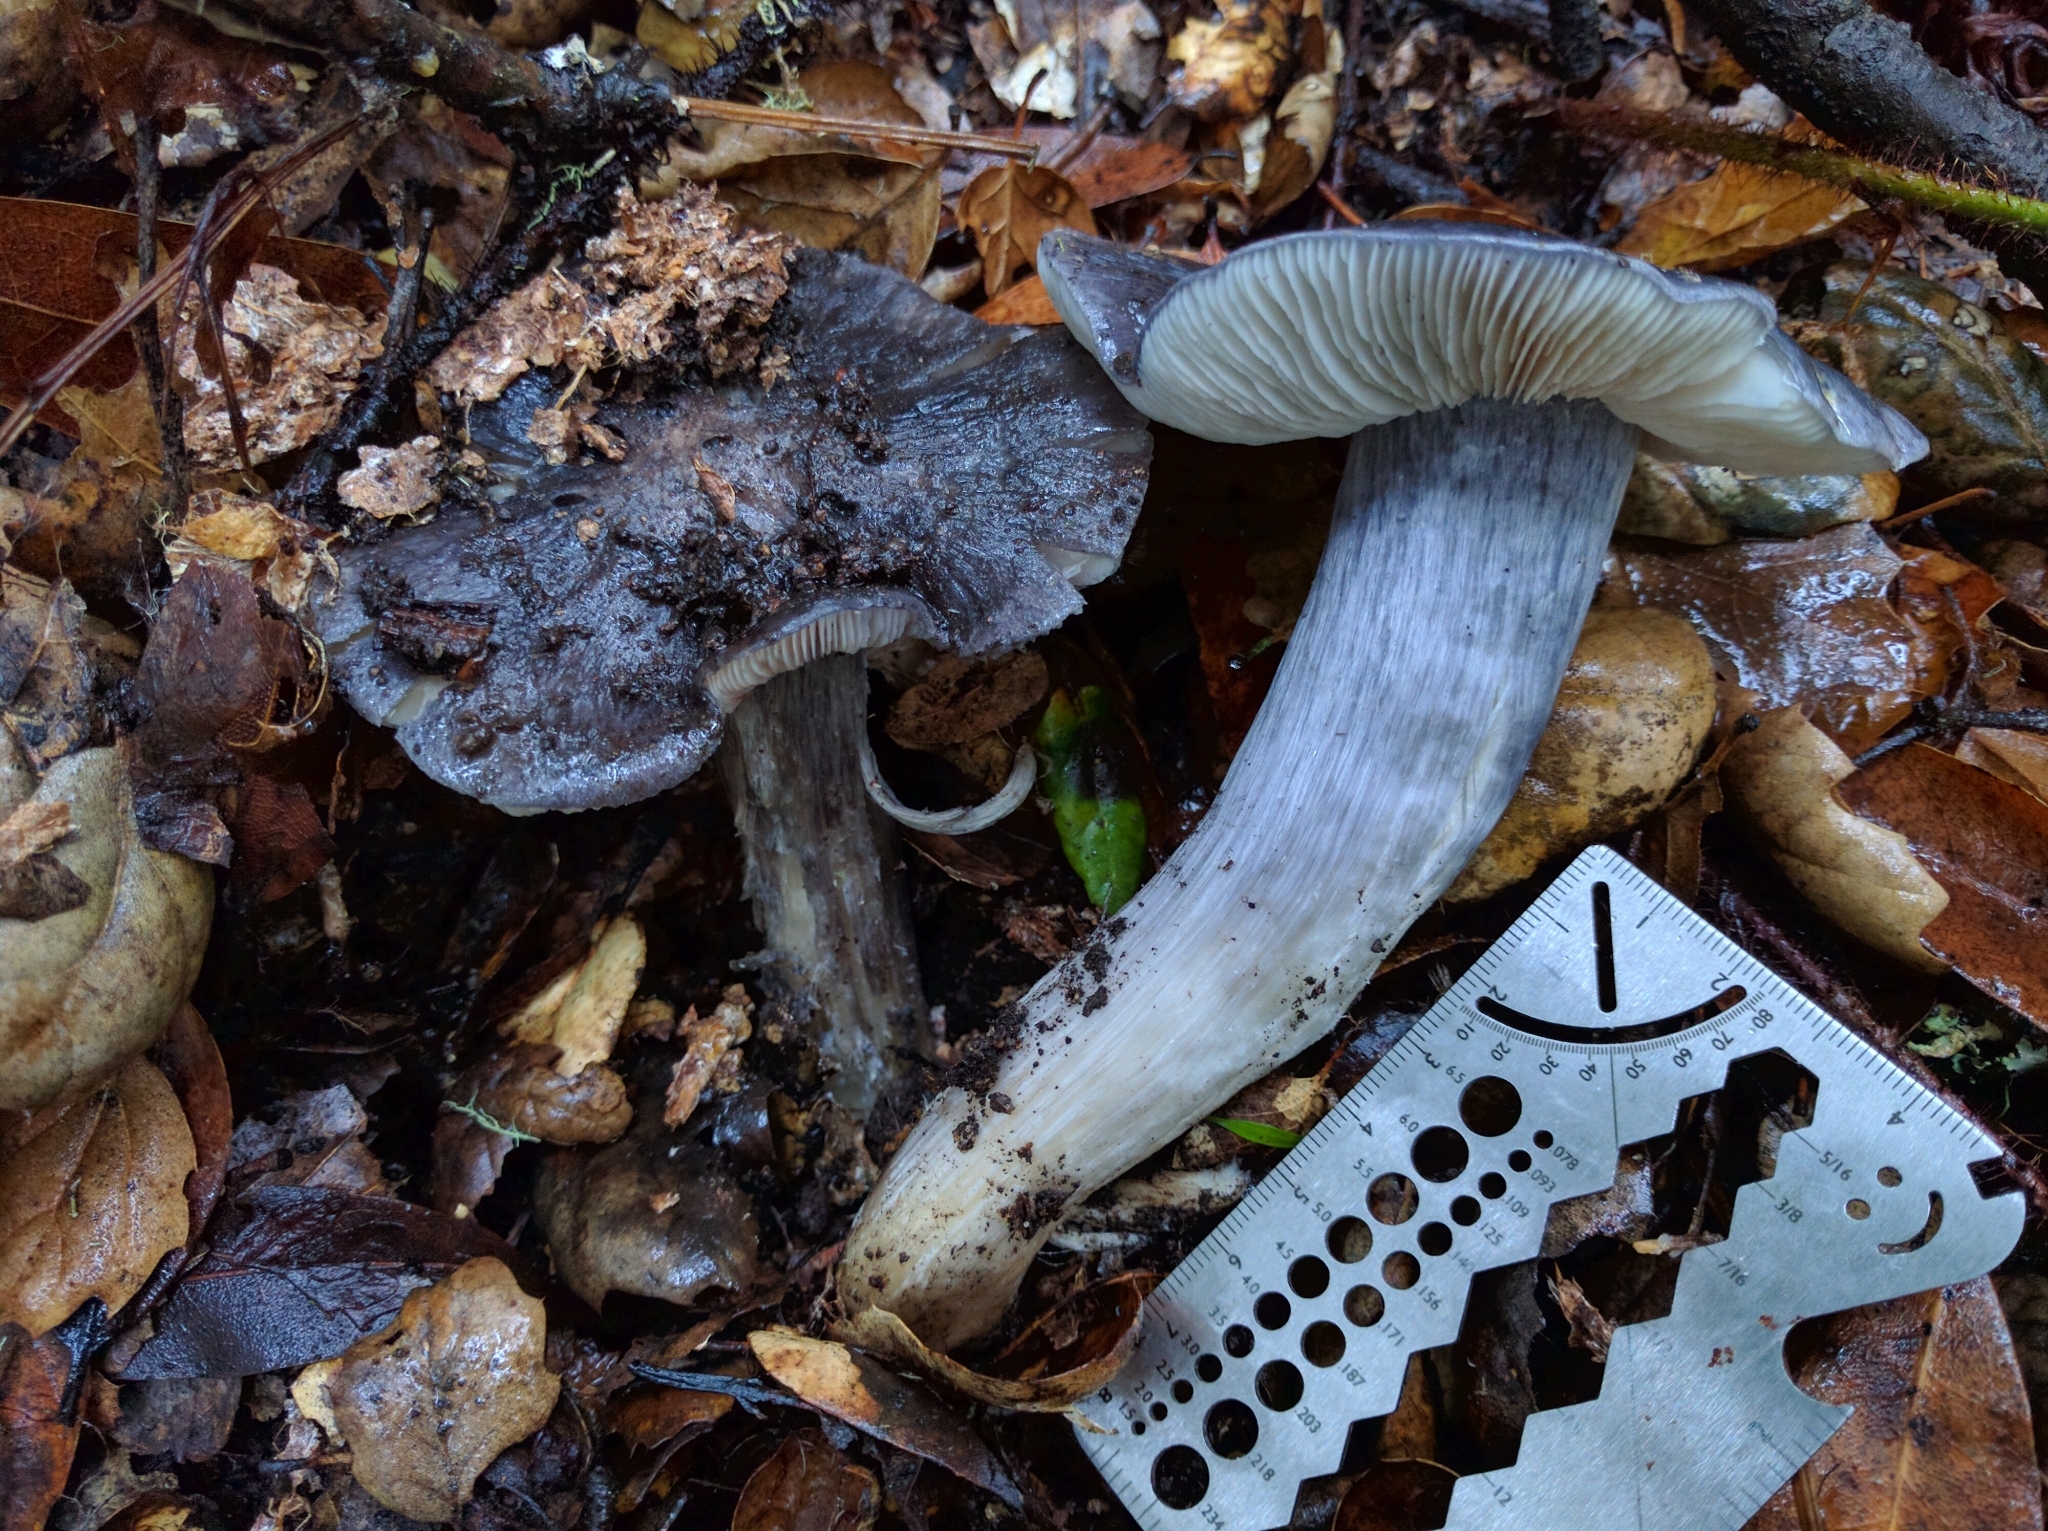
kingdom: Fungi
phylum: Basidiomycota
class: Agaricomycetes
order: Agaricales
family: Entolomataceae
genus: Entoloma
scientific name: Entoloma medianox
